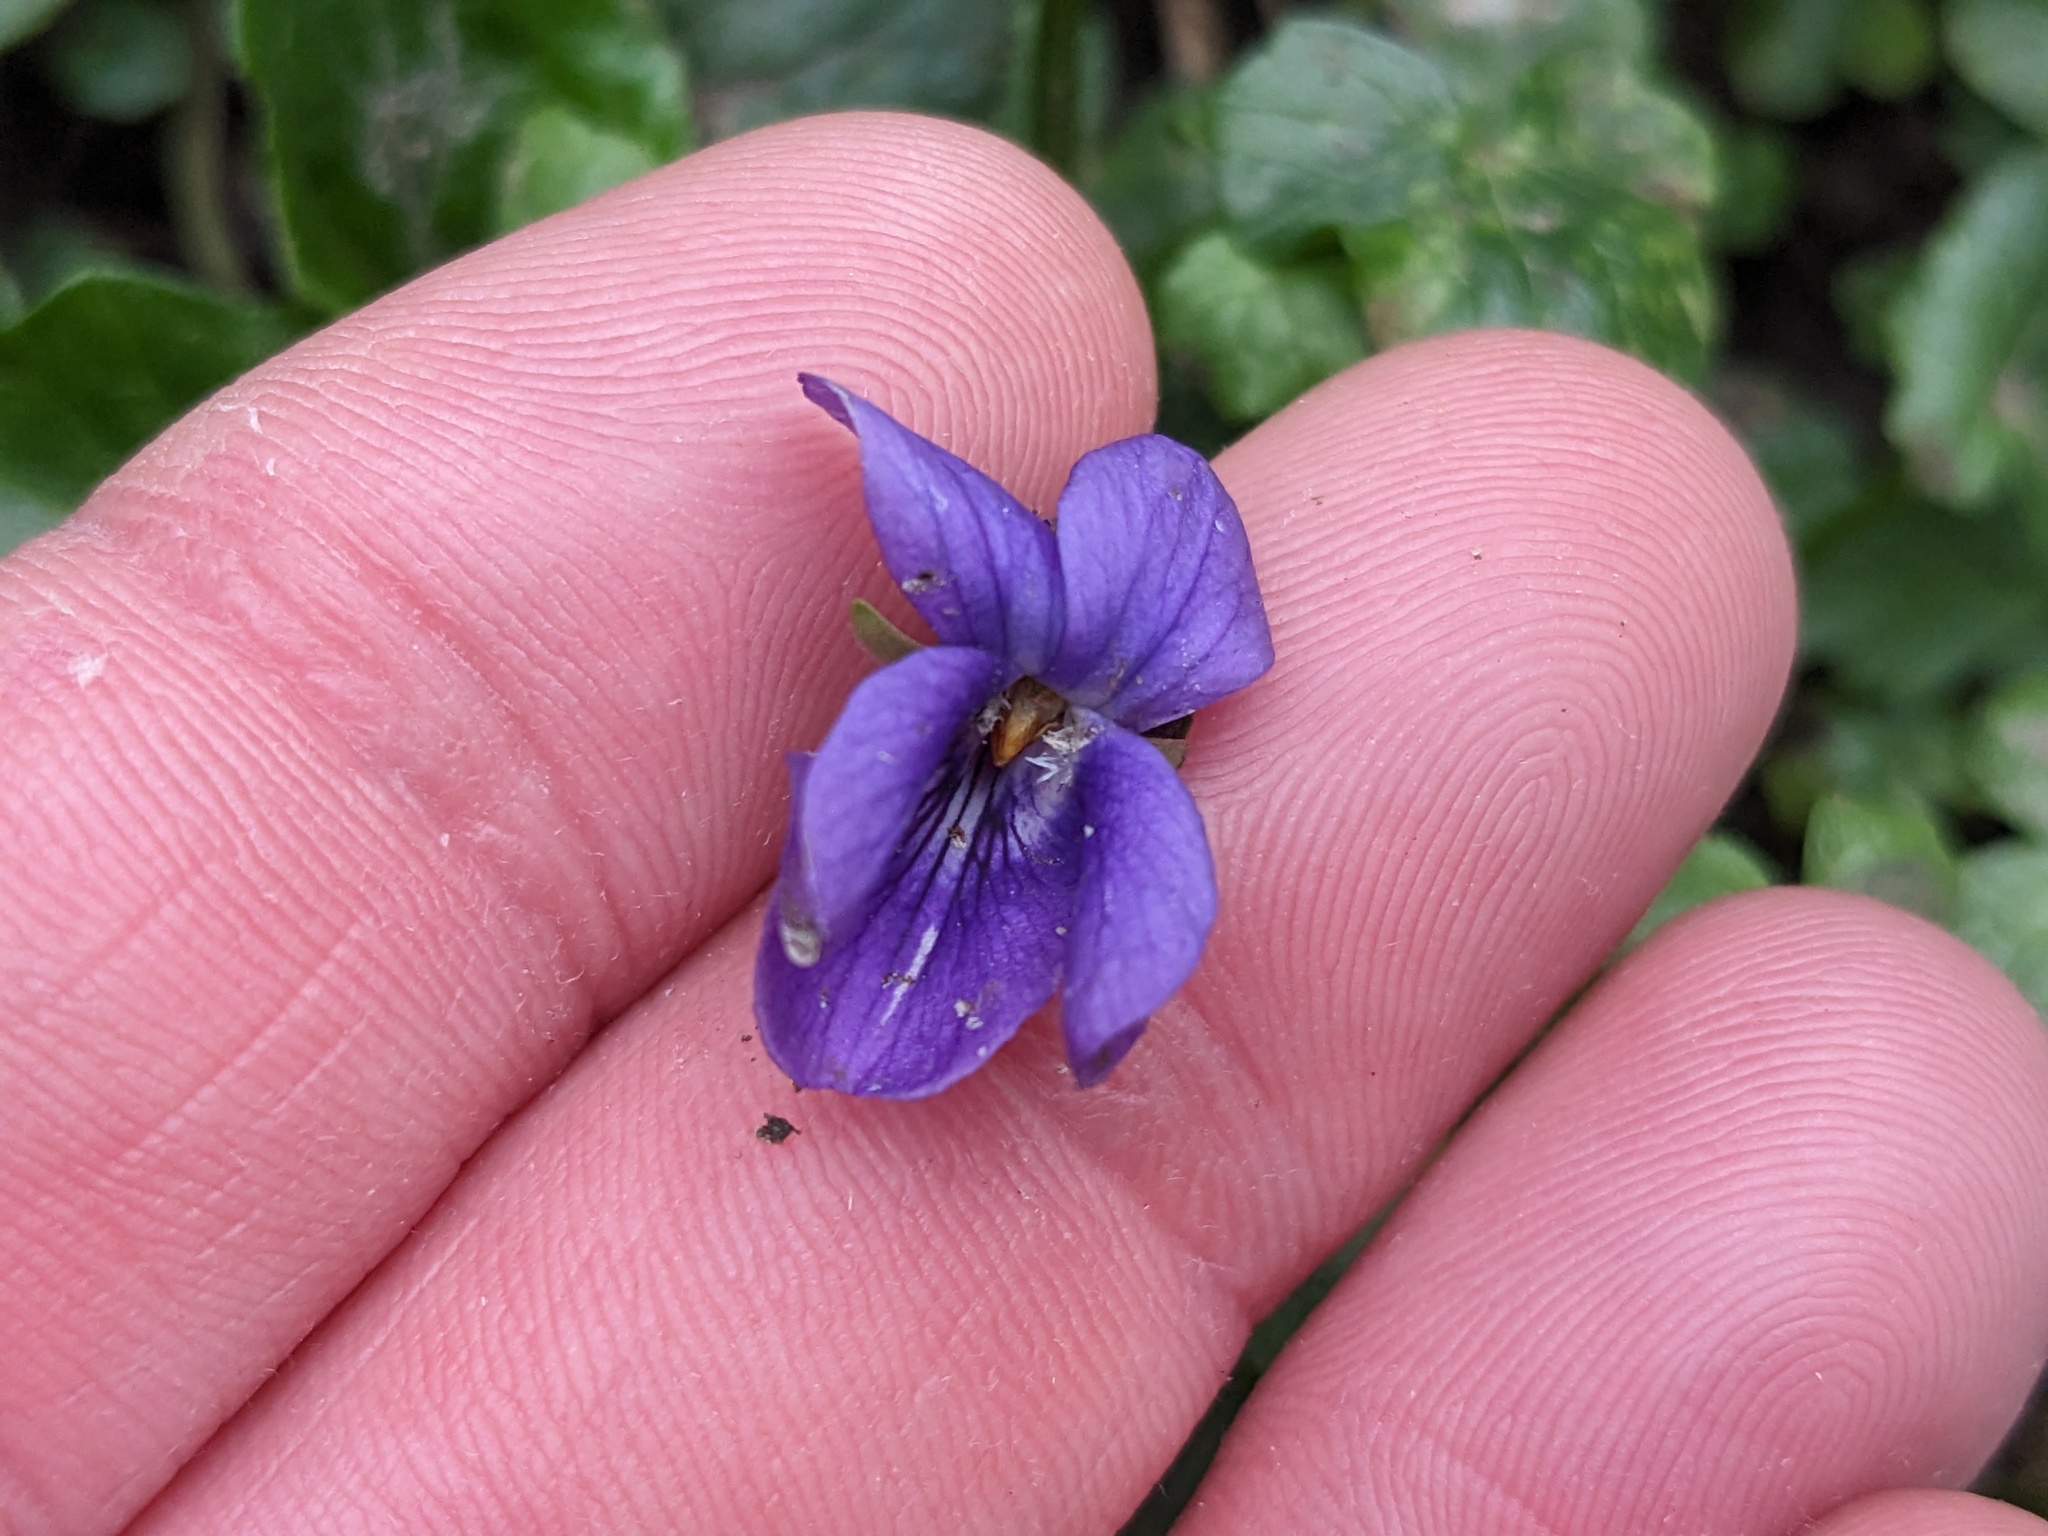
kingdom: Plantae
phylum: Tracheophyta
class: Magnoliopsida
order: Malpighiales
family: Violaceae
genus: Viola
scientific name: Viola odorata
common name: Sweet violet
